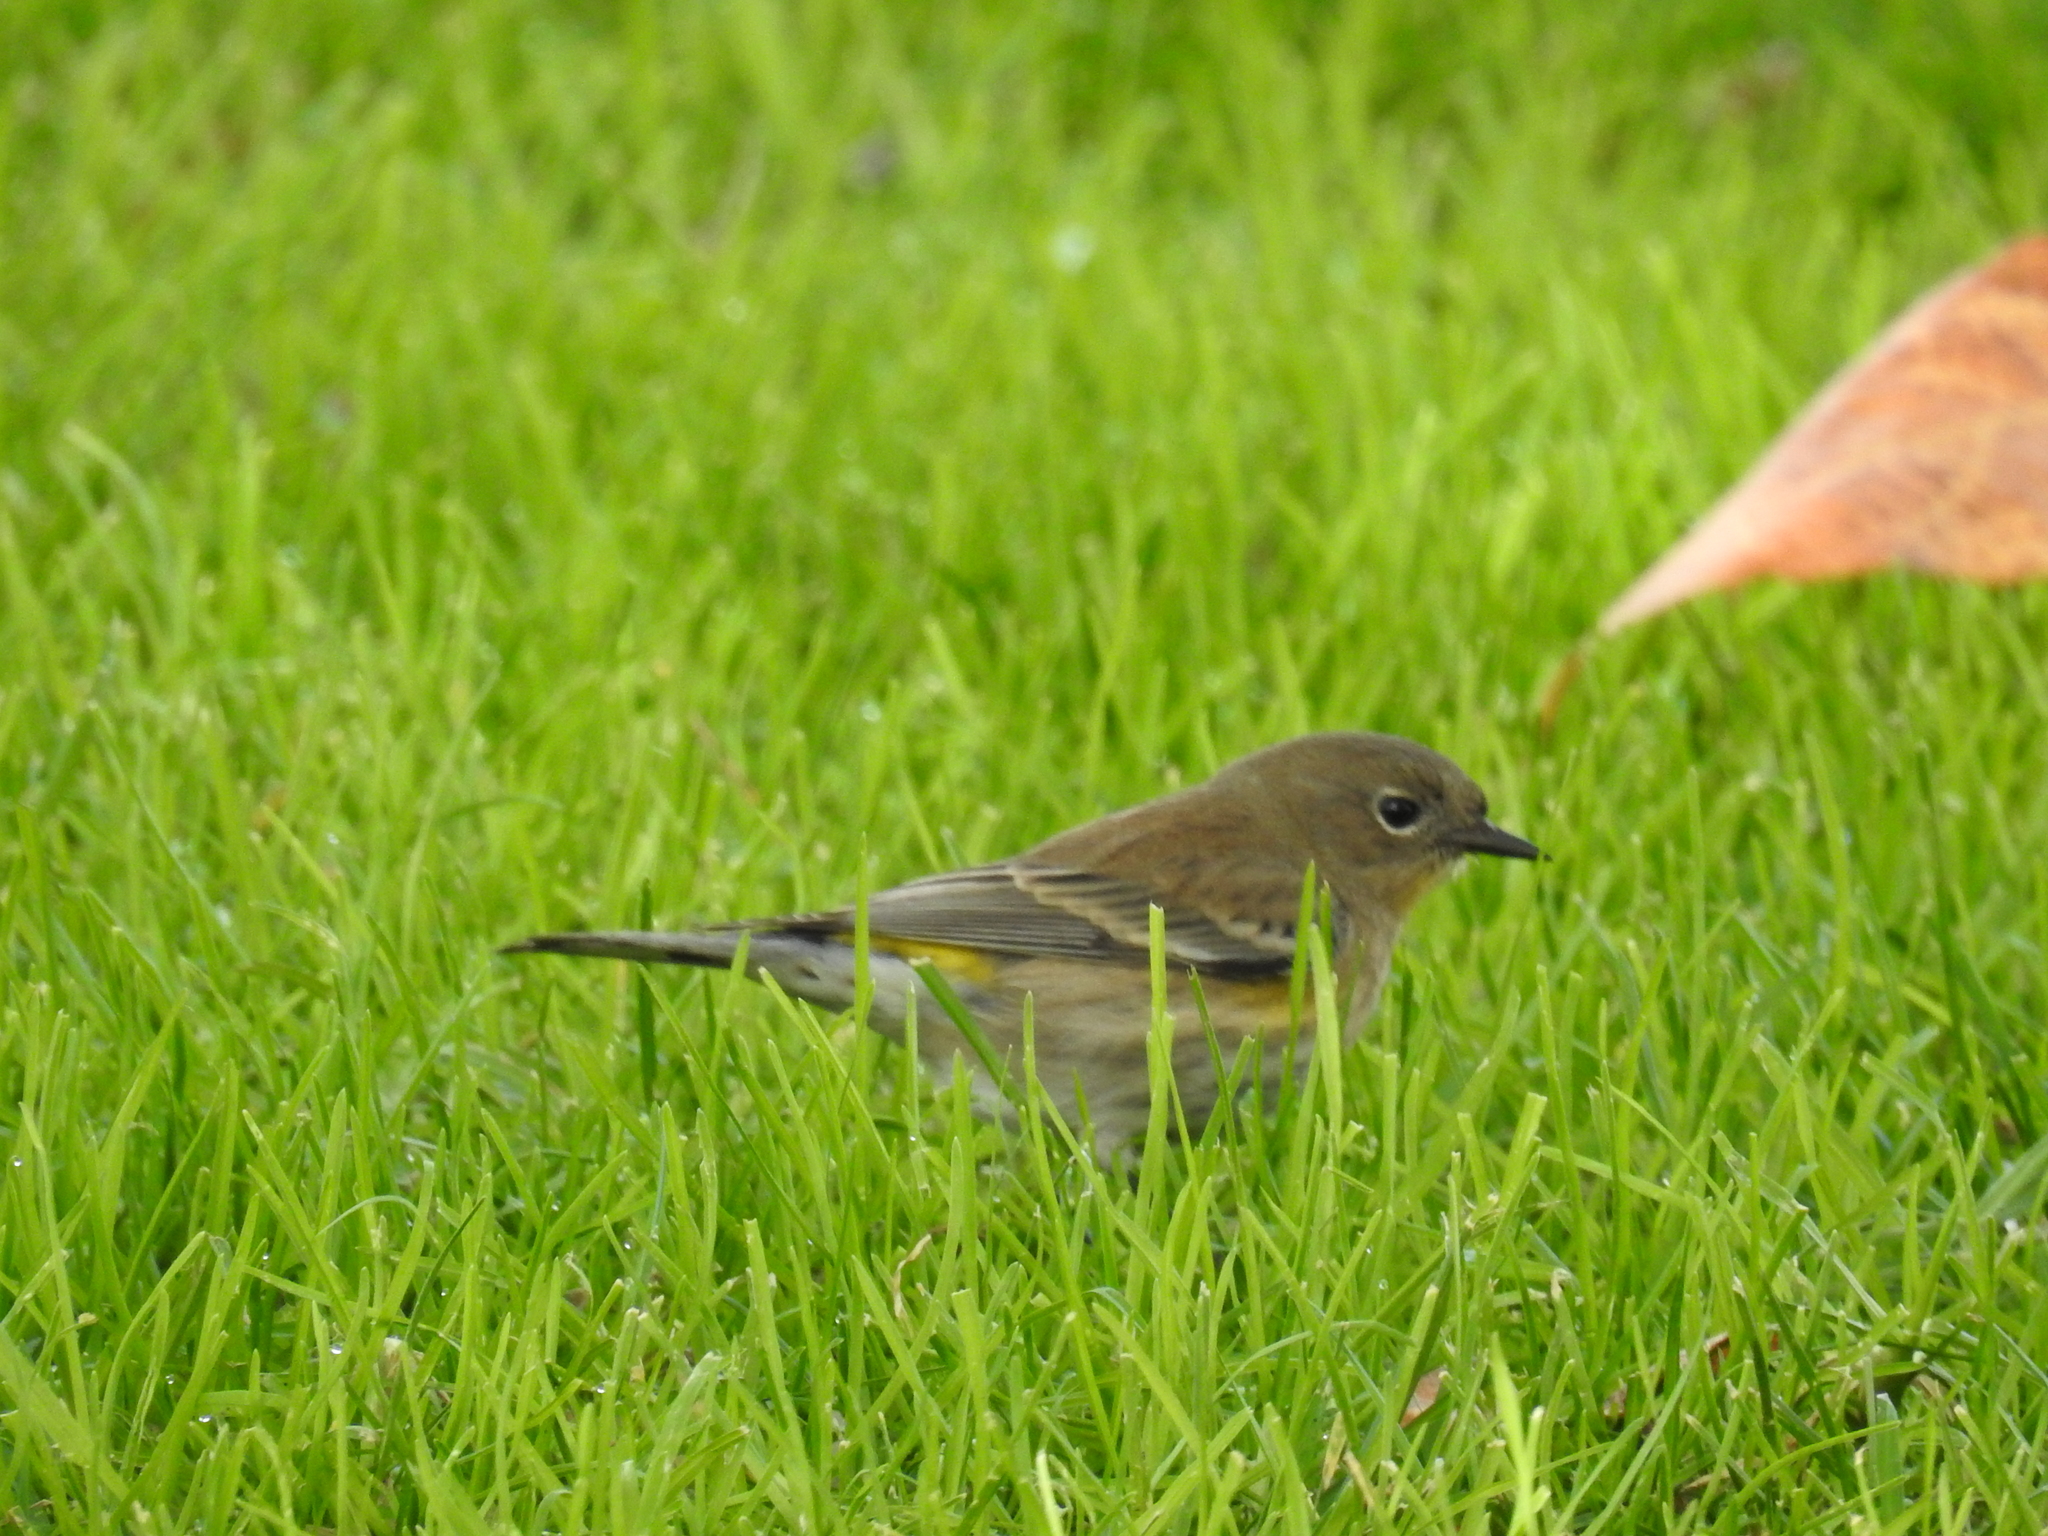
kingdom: Animalia
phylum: Chordata
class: Aves
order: Passeriformes
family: Parulidae
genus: Setophaga
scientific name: Setophaga coronata
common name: Myrtle warbler
